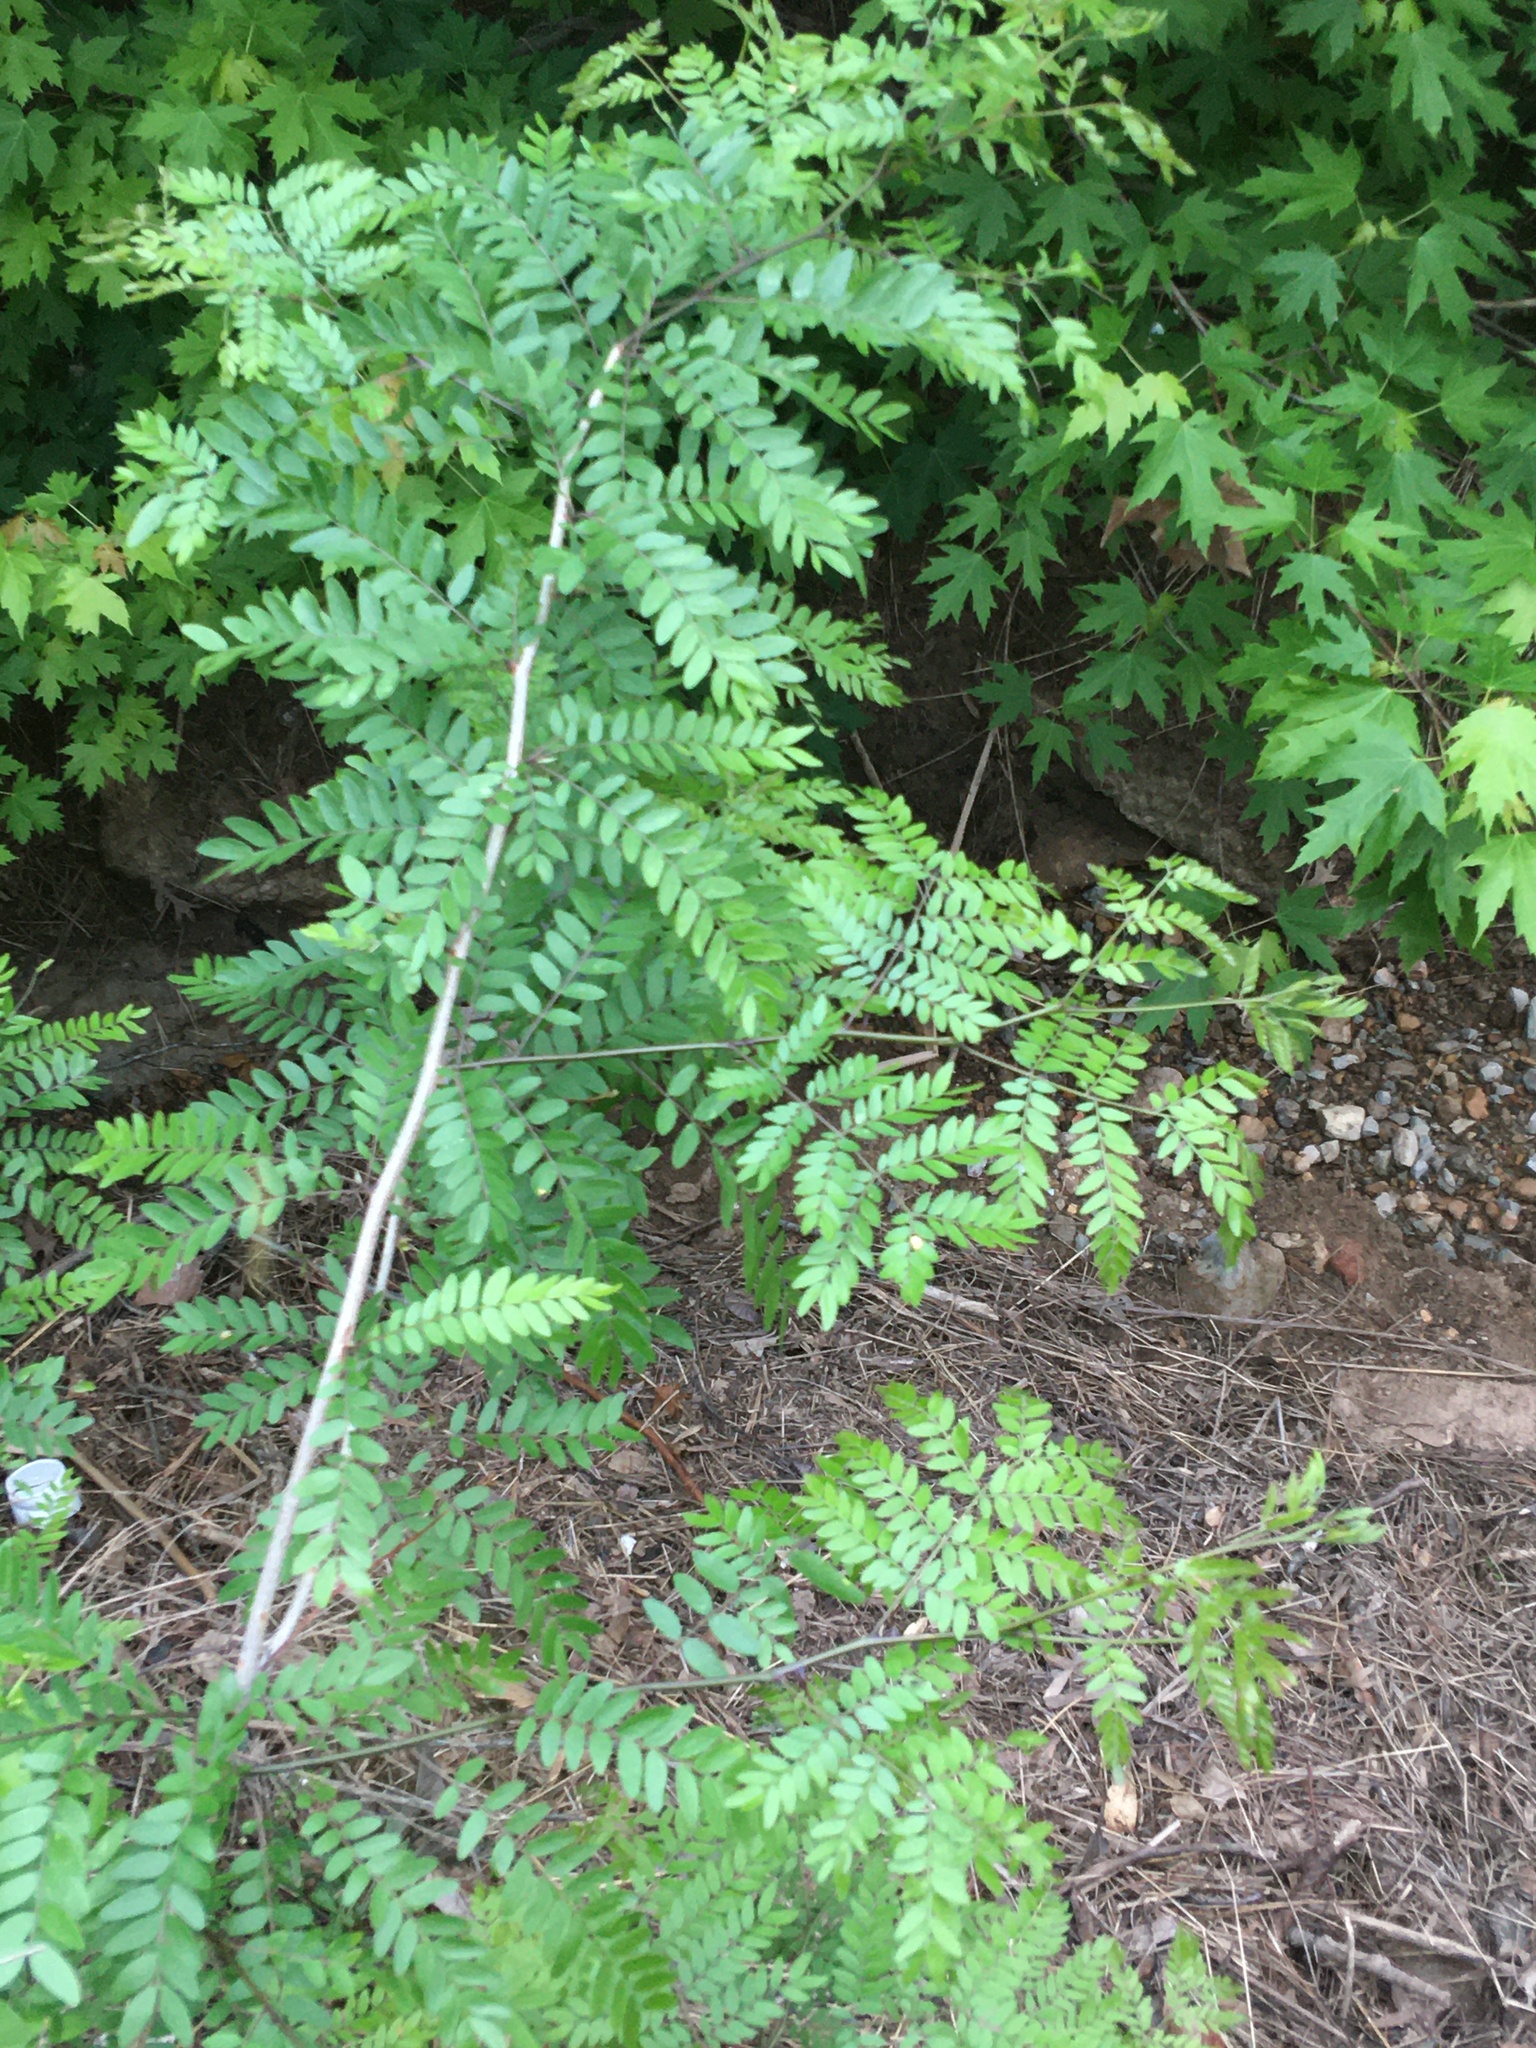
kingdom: Plantae
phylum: Tracheophyta
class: Magnoliopsida
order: Fabales
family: Fabaceae
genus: Gleditsia
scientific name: Gleditsia triacanthos
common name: Common honeylocust
